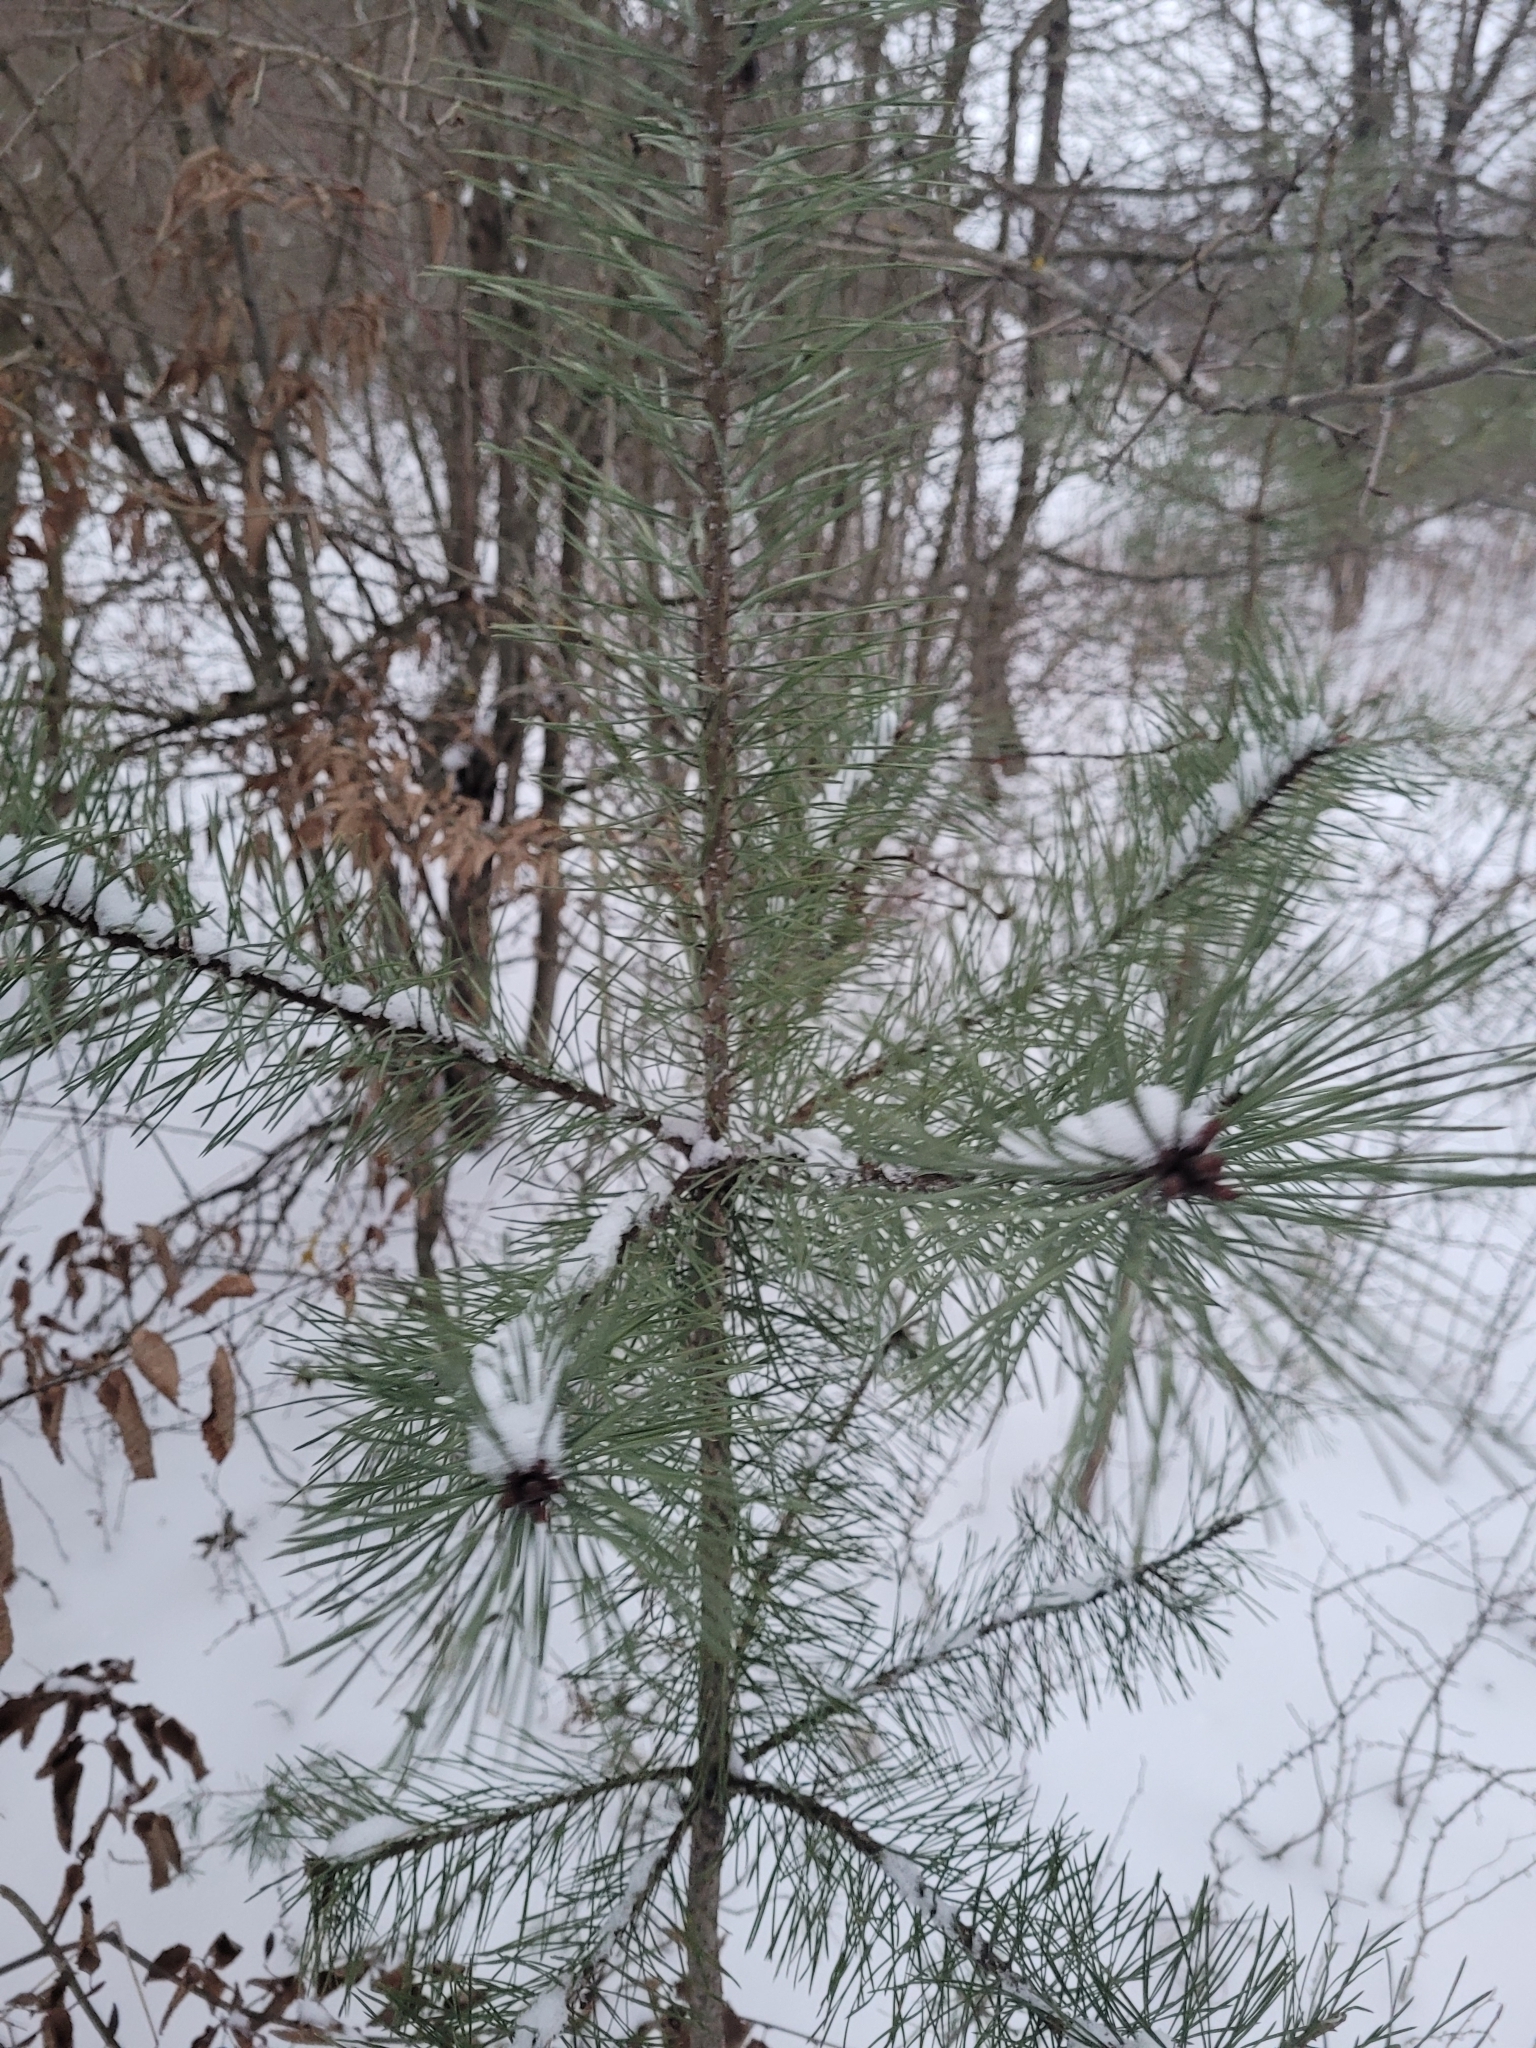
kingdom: Plantae
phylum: Tracheophyta
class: Pinopsida
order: Pinales
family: Pinaceae
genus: Pinus
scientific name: Pinus sylvestris
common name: Scots pine
